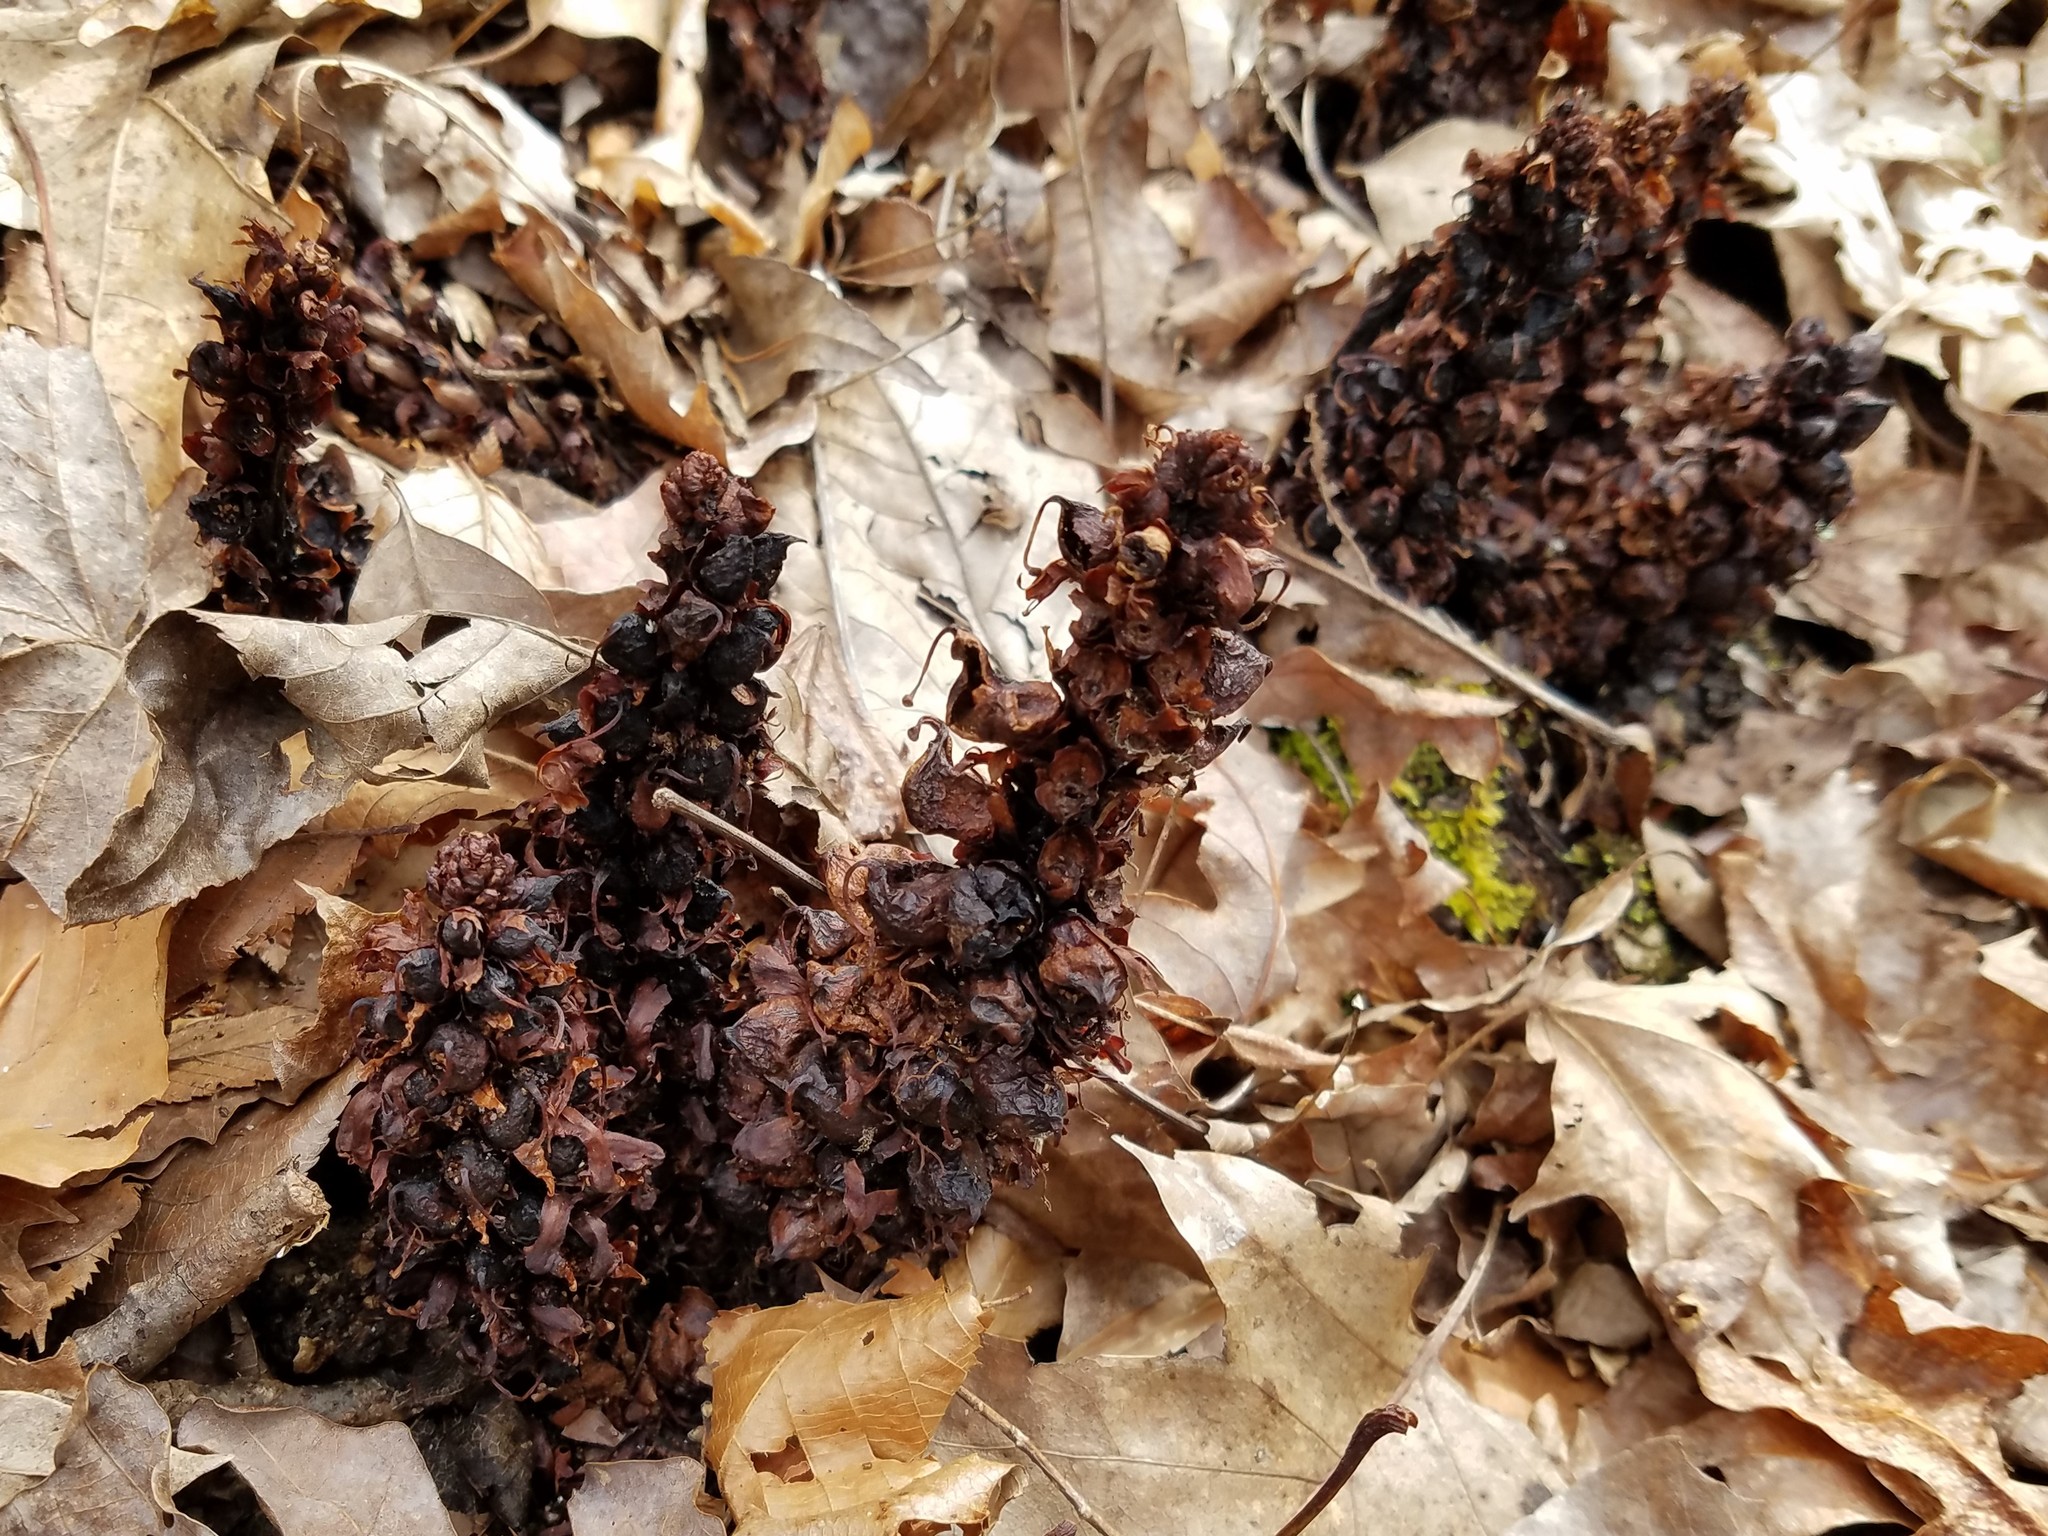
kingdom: Plantae
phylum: Tracheophyta
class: Magnoliopsida
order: Lamiales
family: Orobanchaceae
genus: Conopholis
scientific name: Conopholis americana
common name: American cancer-root
